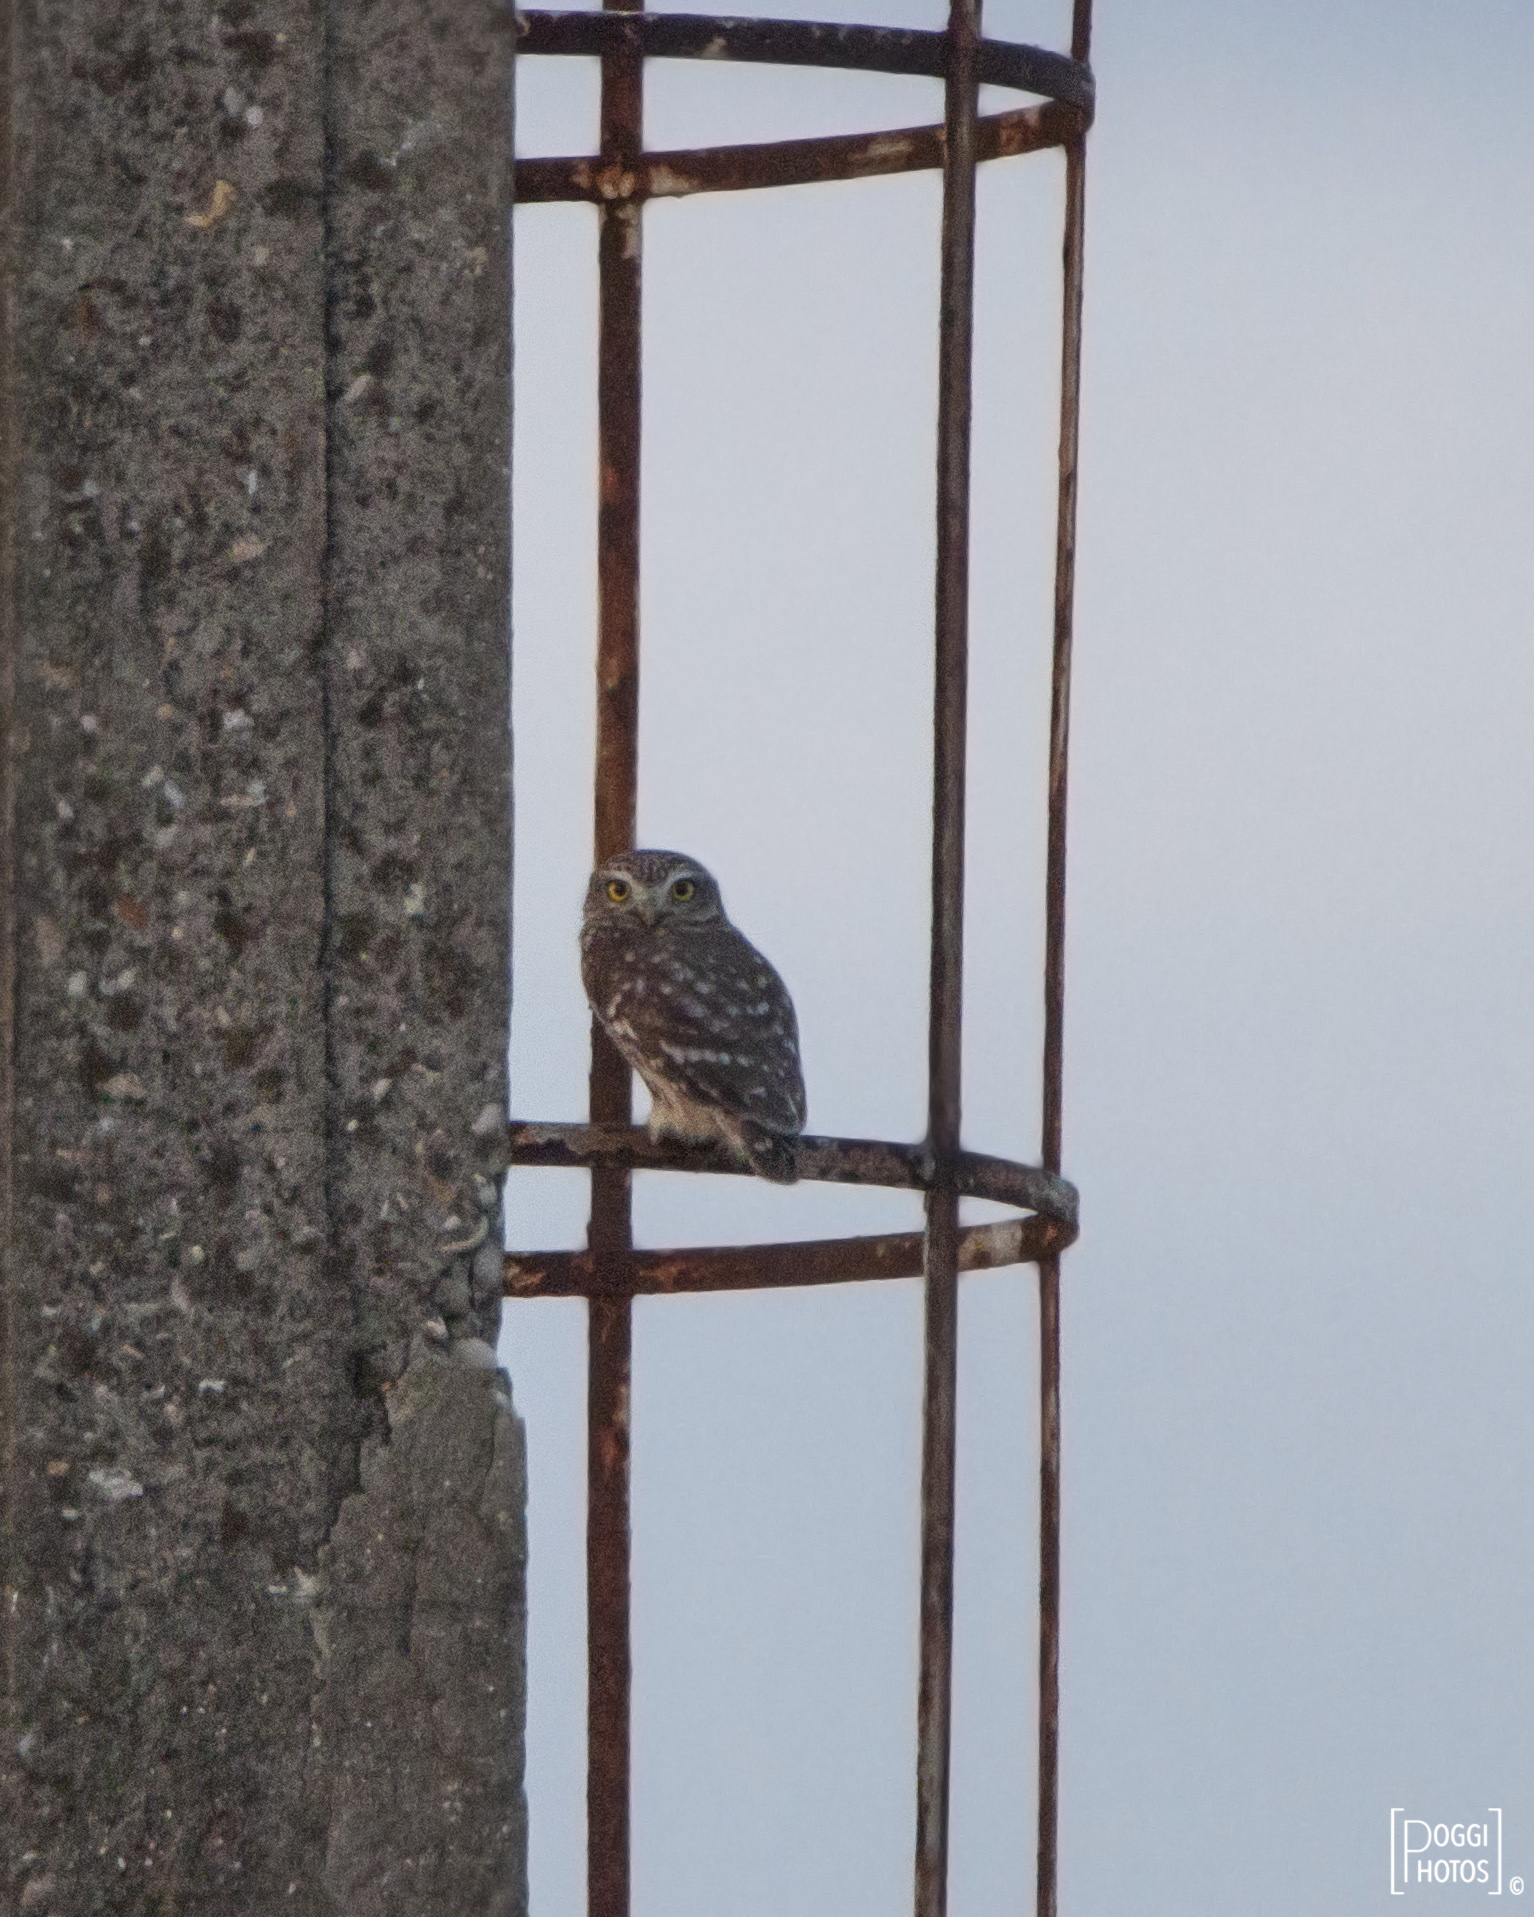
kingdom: Animalia
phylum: Chordata
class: Aves
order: Strigiformes
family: Strigidae
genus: Athene
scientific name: Athene noctua
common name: Little owl
